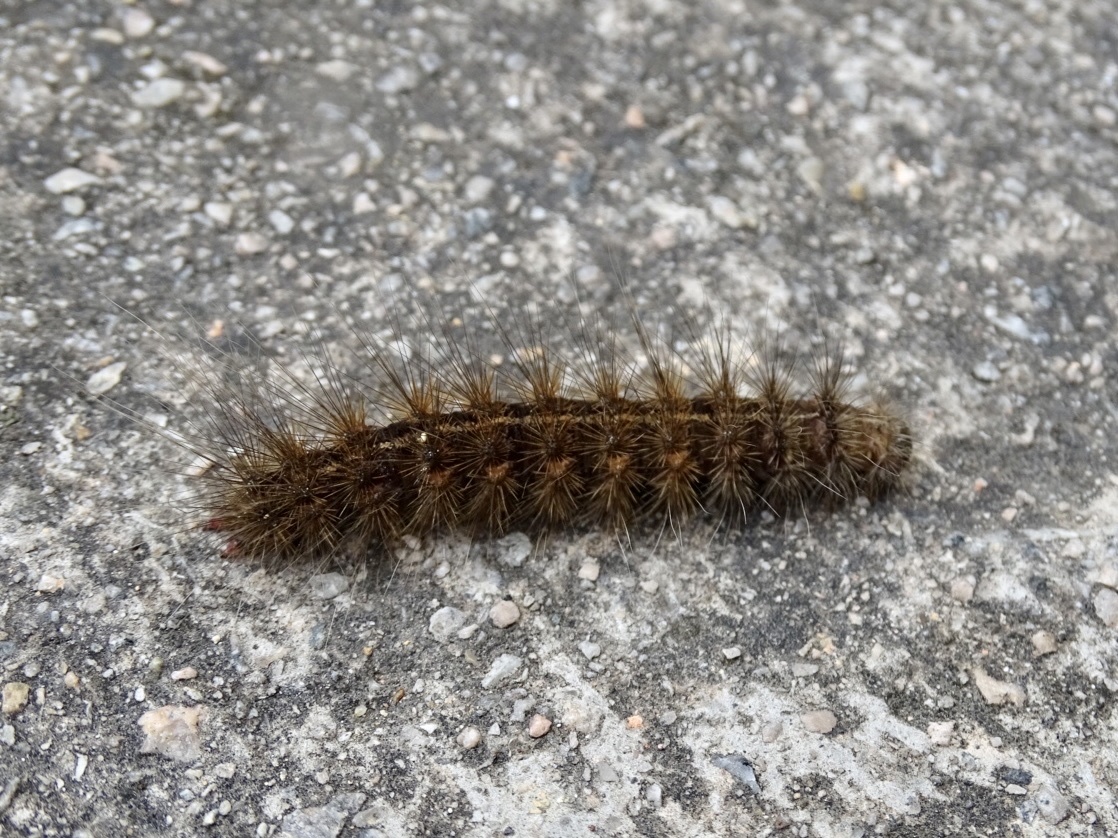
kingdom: Animalia
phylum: Arthropoda
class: Insecta
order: Lepidoptera
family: Erebidae
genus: Creatonotos
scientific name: Creatonotos transiens
